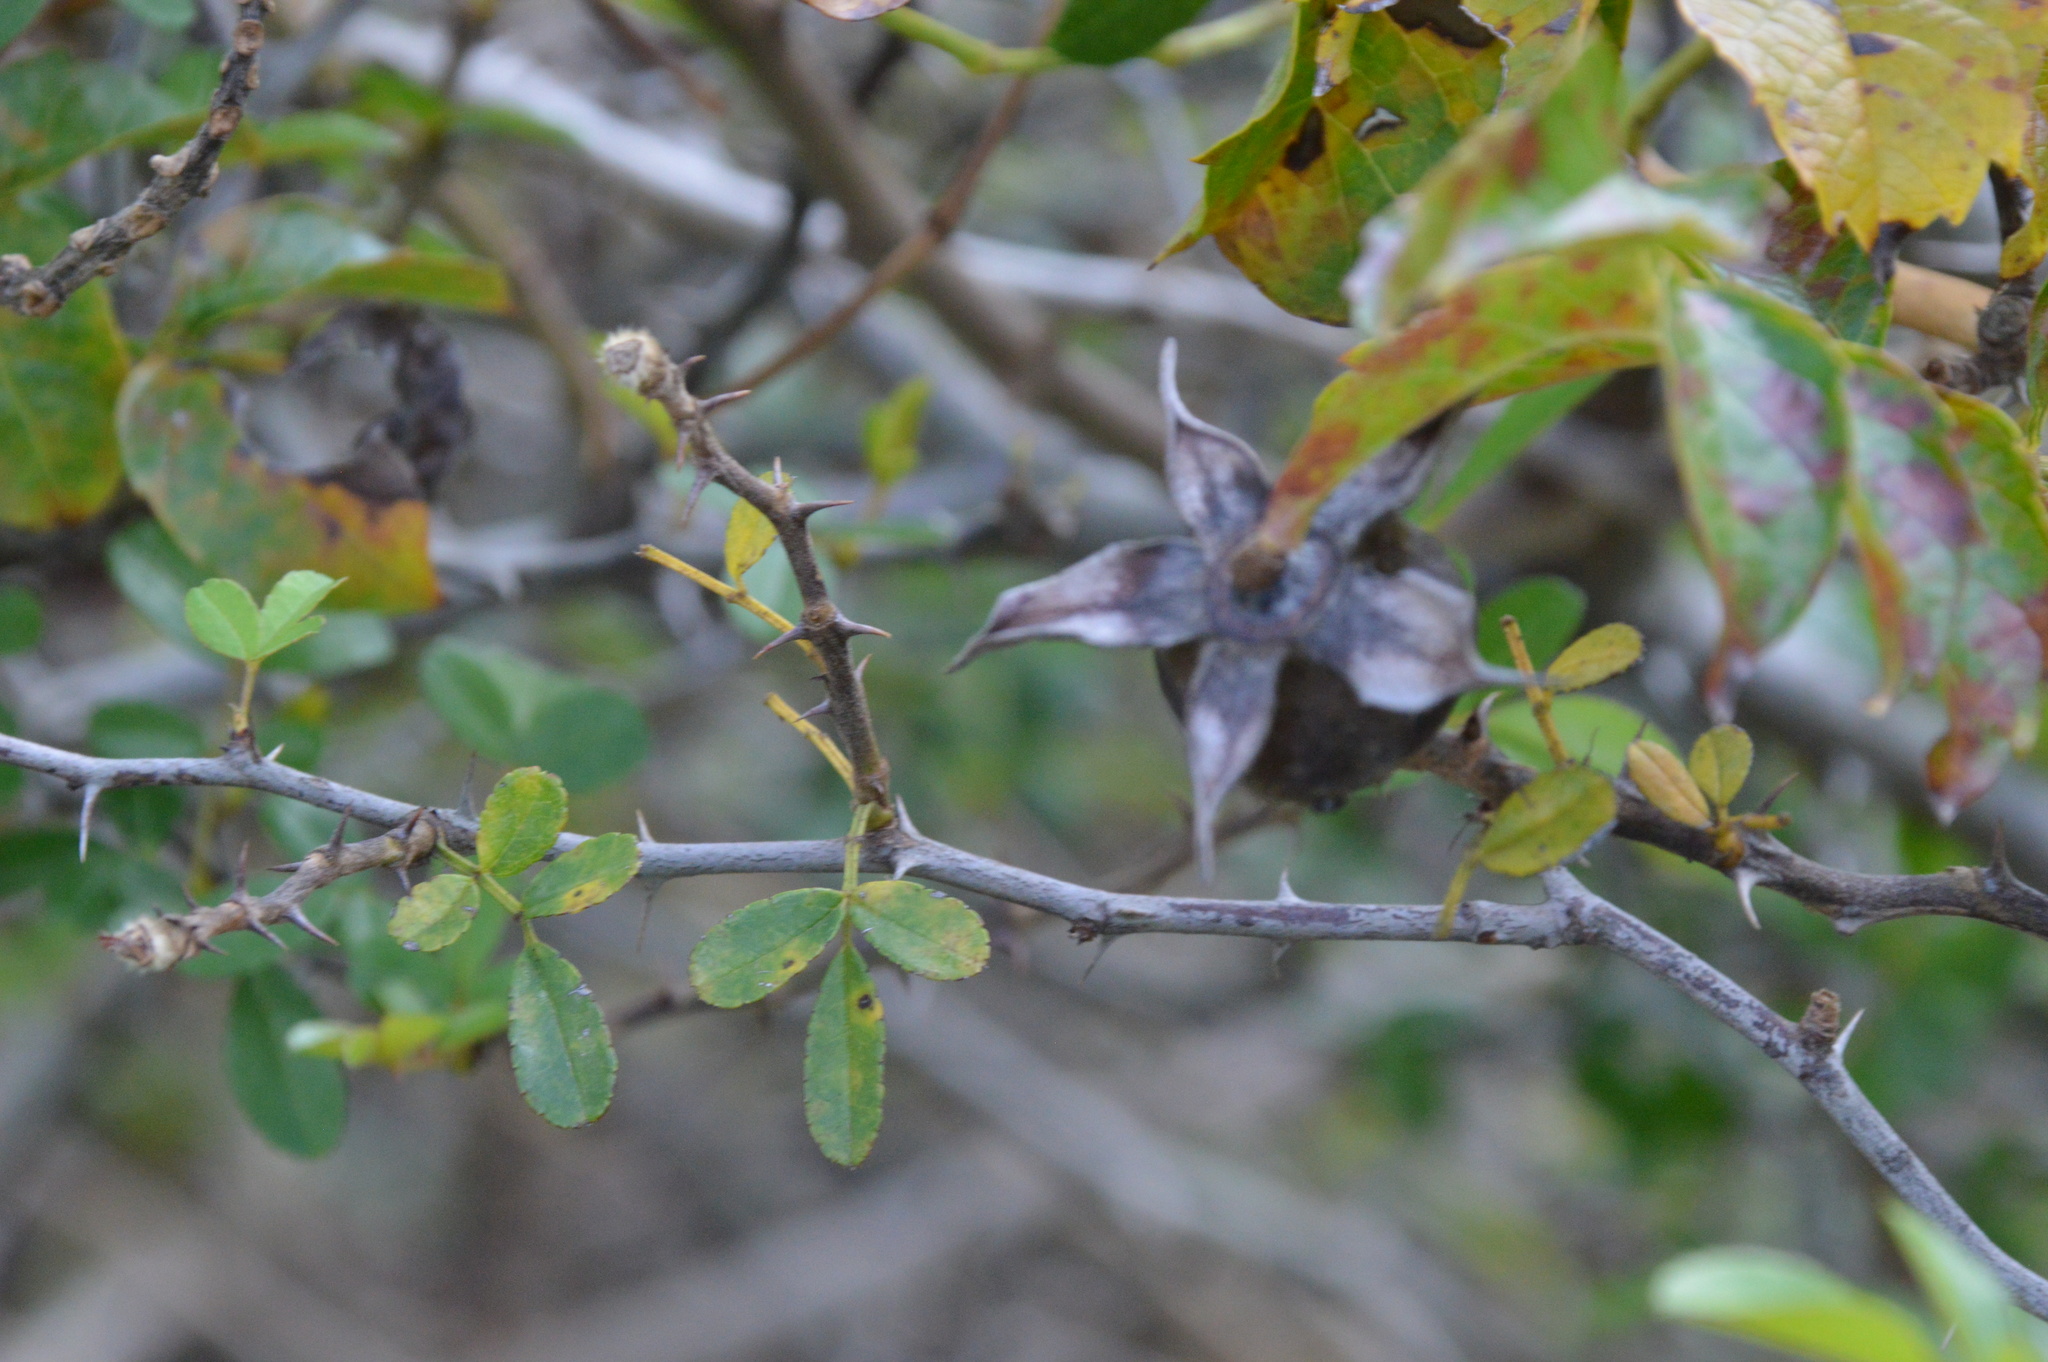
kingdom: Plantae
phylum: Tracheophyta
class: Magnoliopsida
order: Rosales
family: Rosaceae
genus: Rosa
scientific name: Rosa bracteata
